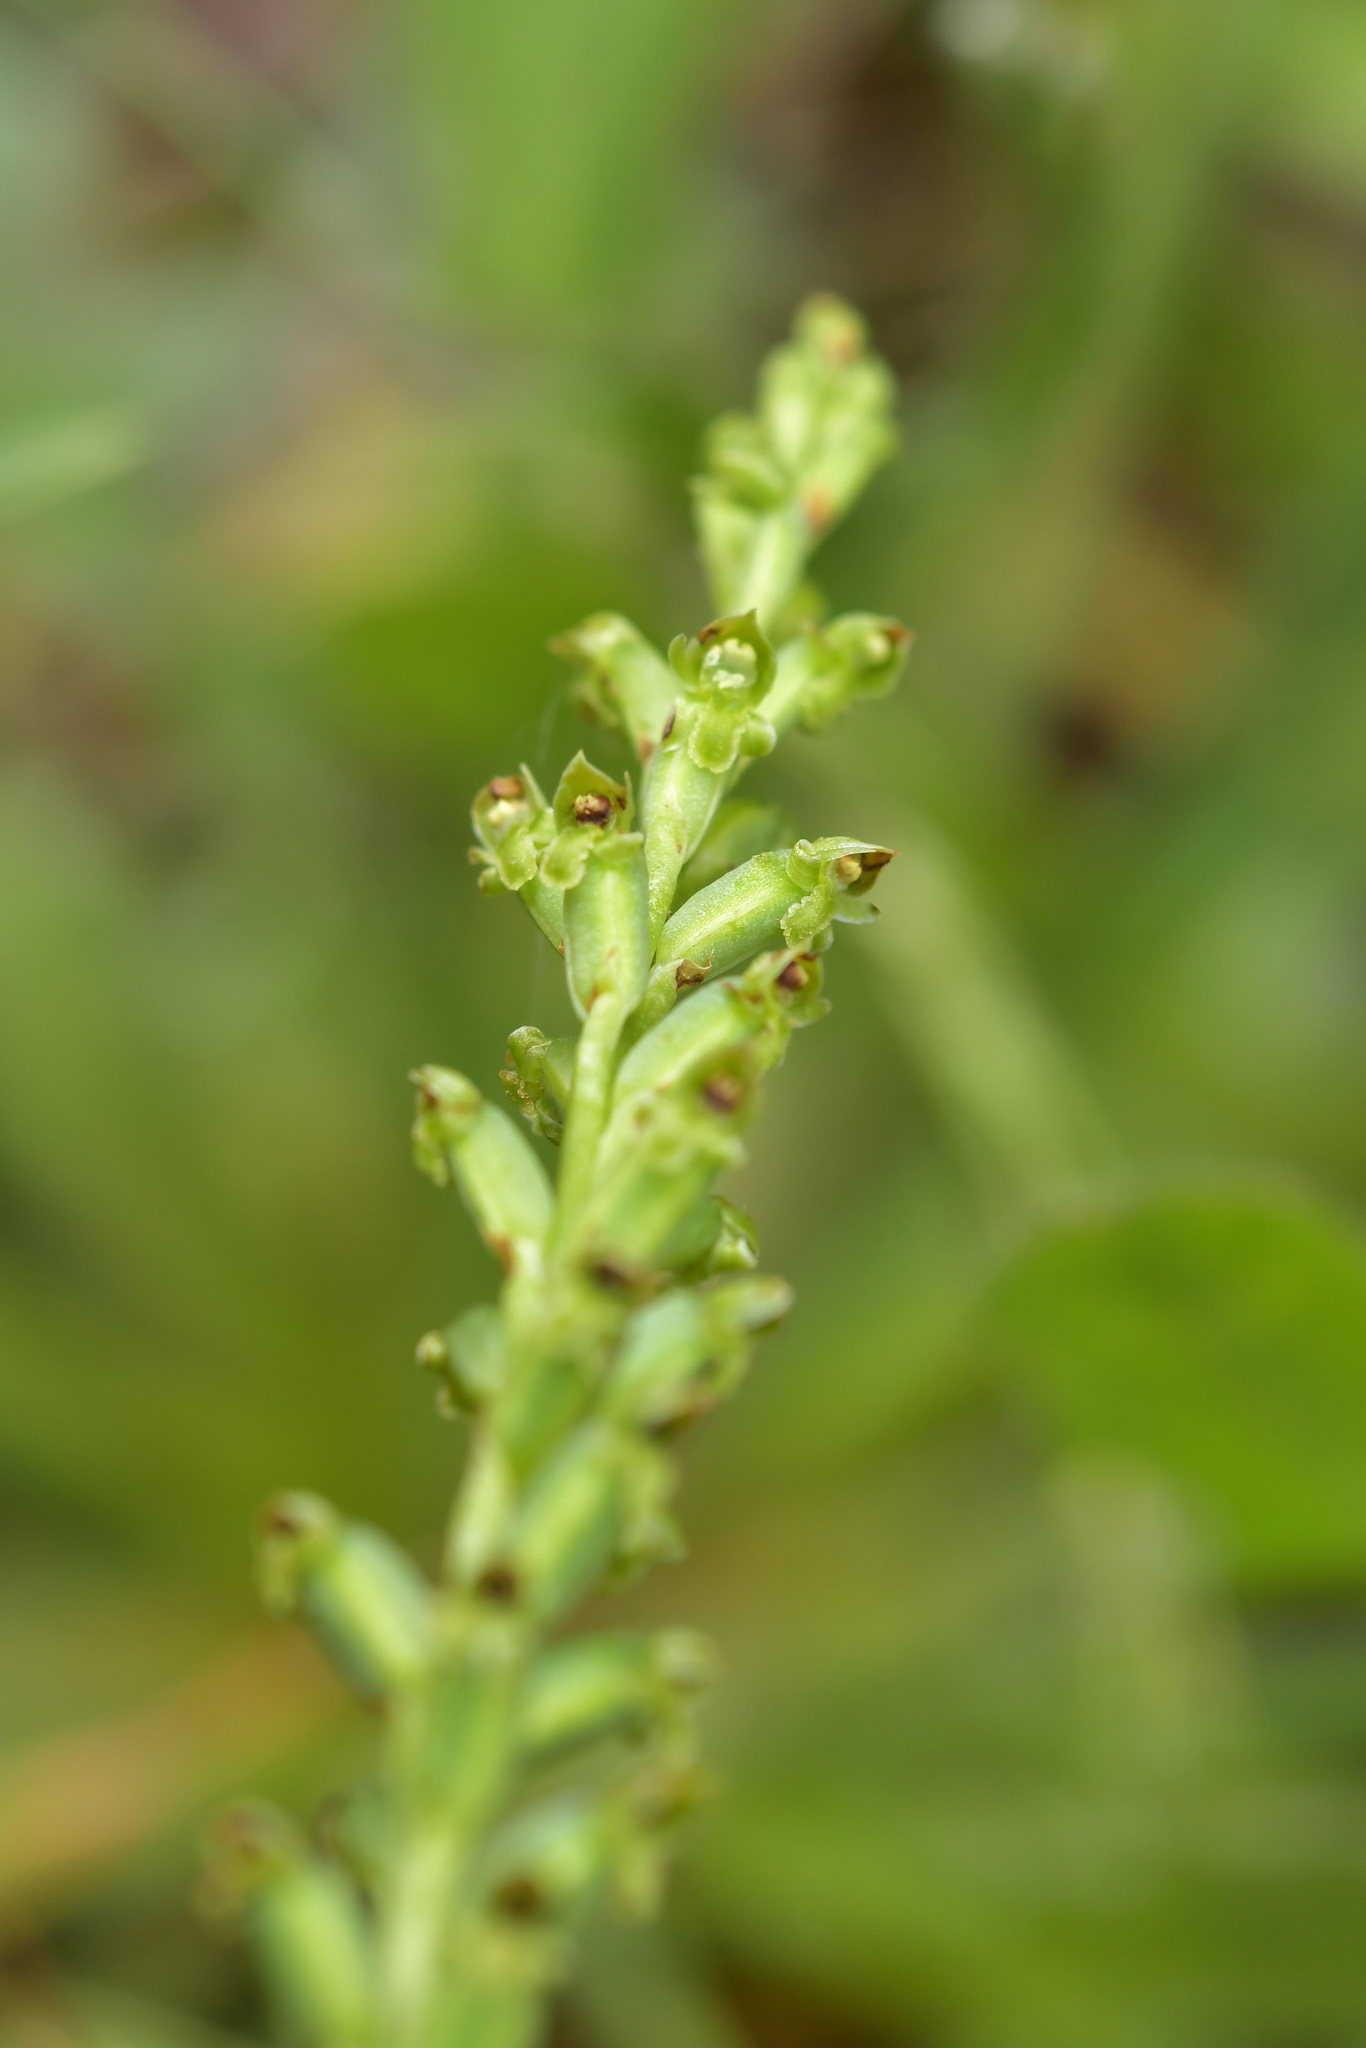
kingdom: Plantae
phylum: Tracheophyta
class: Liliopsida
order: Asparagales
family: Orchidaceae
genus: Microtis
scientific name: Microtis unifolia
